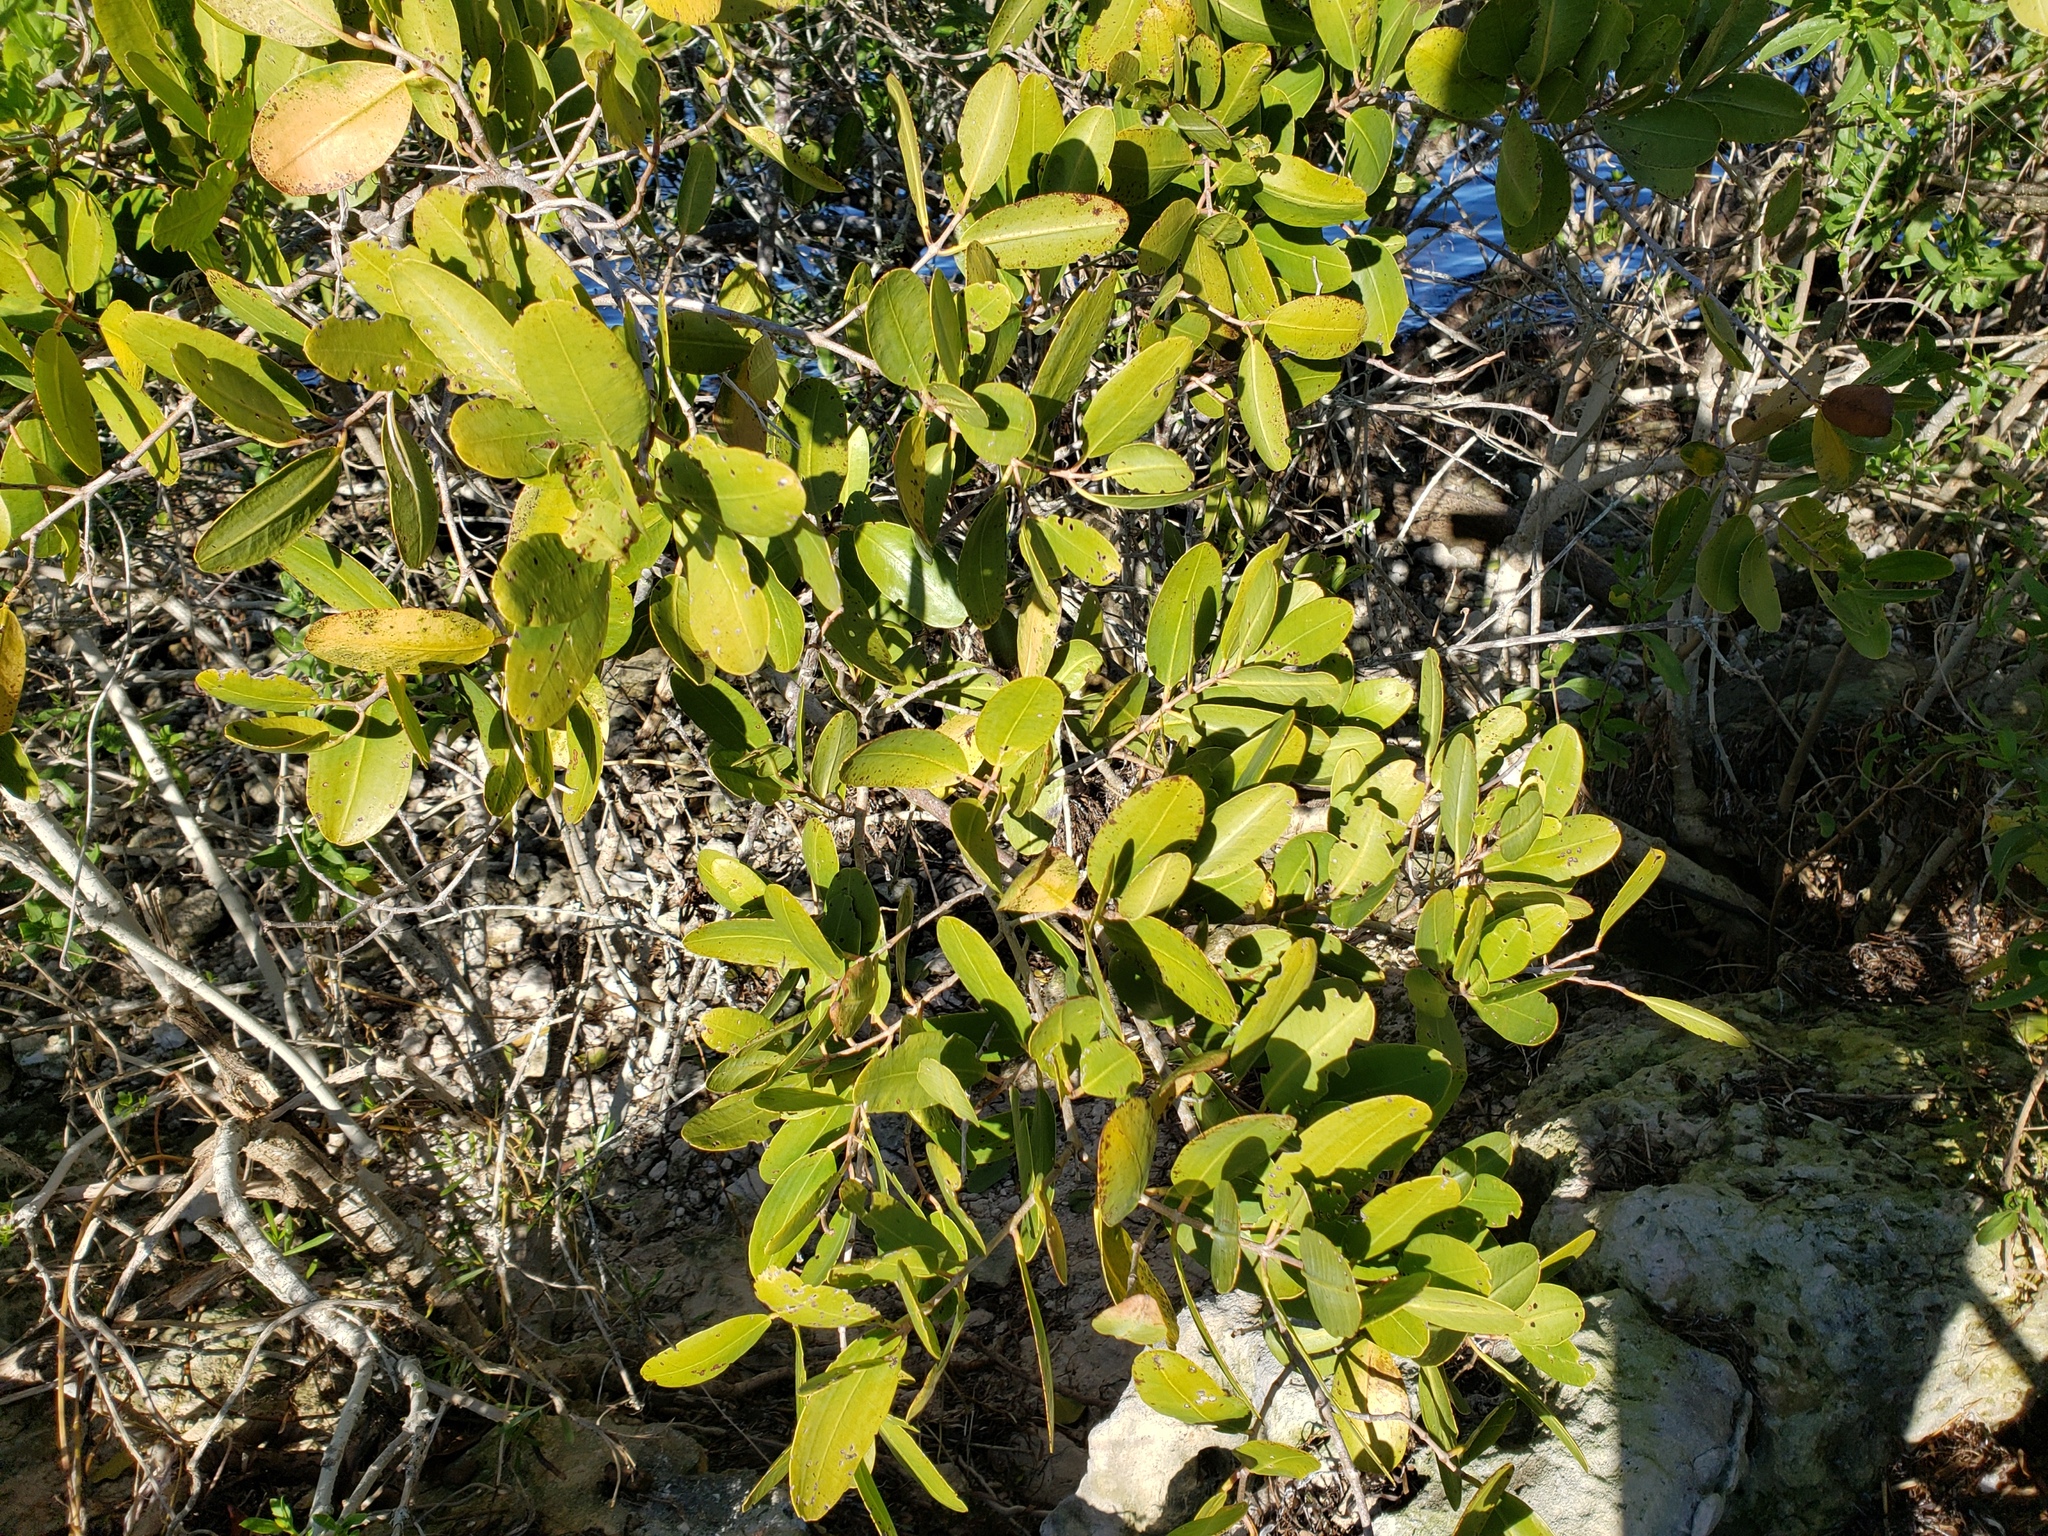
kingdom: Plantae
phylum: Tracheophyta
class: Magnoliopsida
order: Myrtales
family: Combretaceae
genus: Laguncularia
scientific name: Laguncularia racemosa
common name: White mangrove
